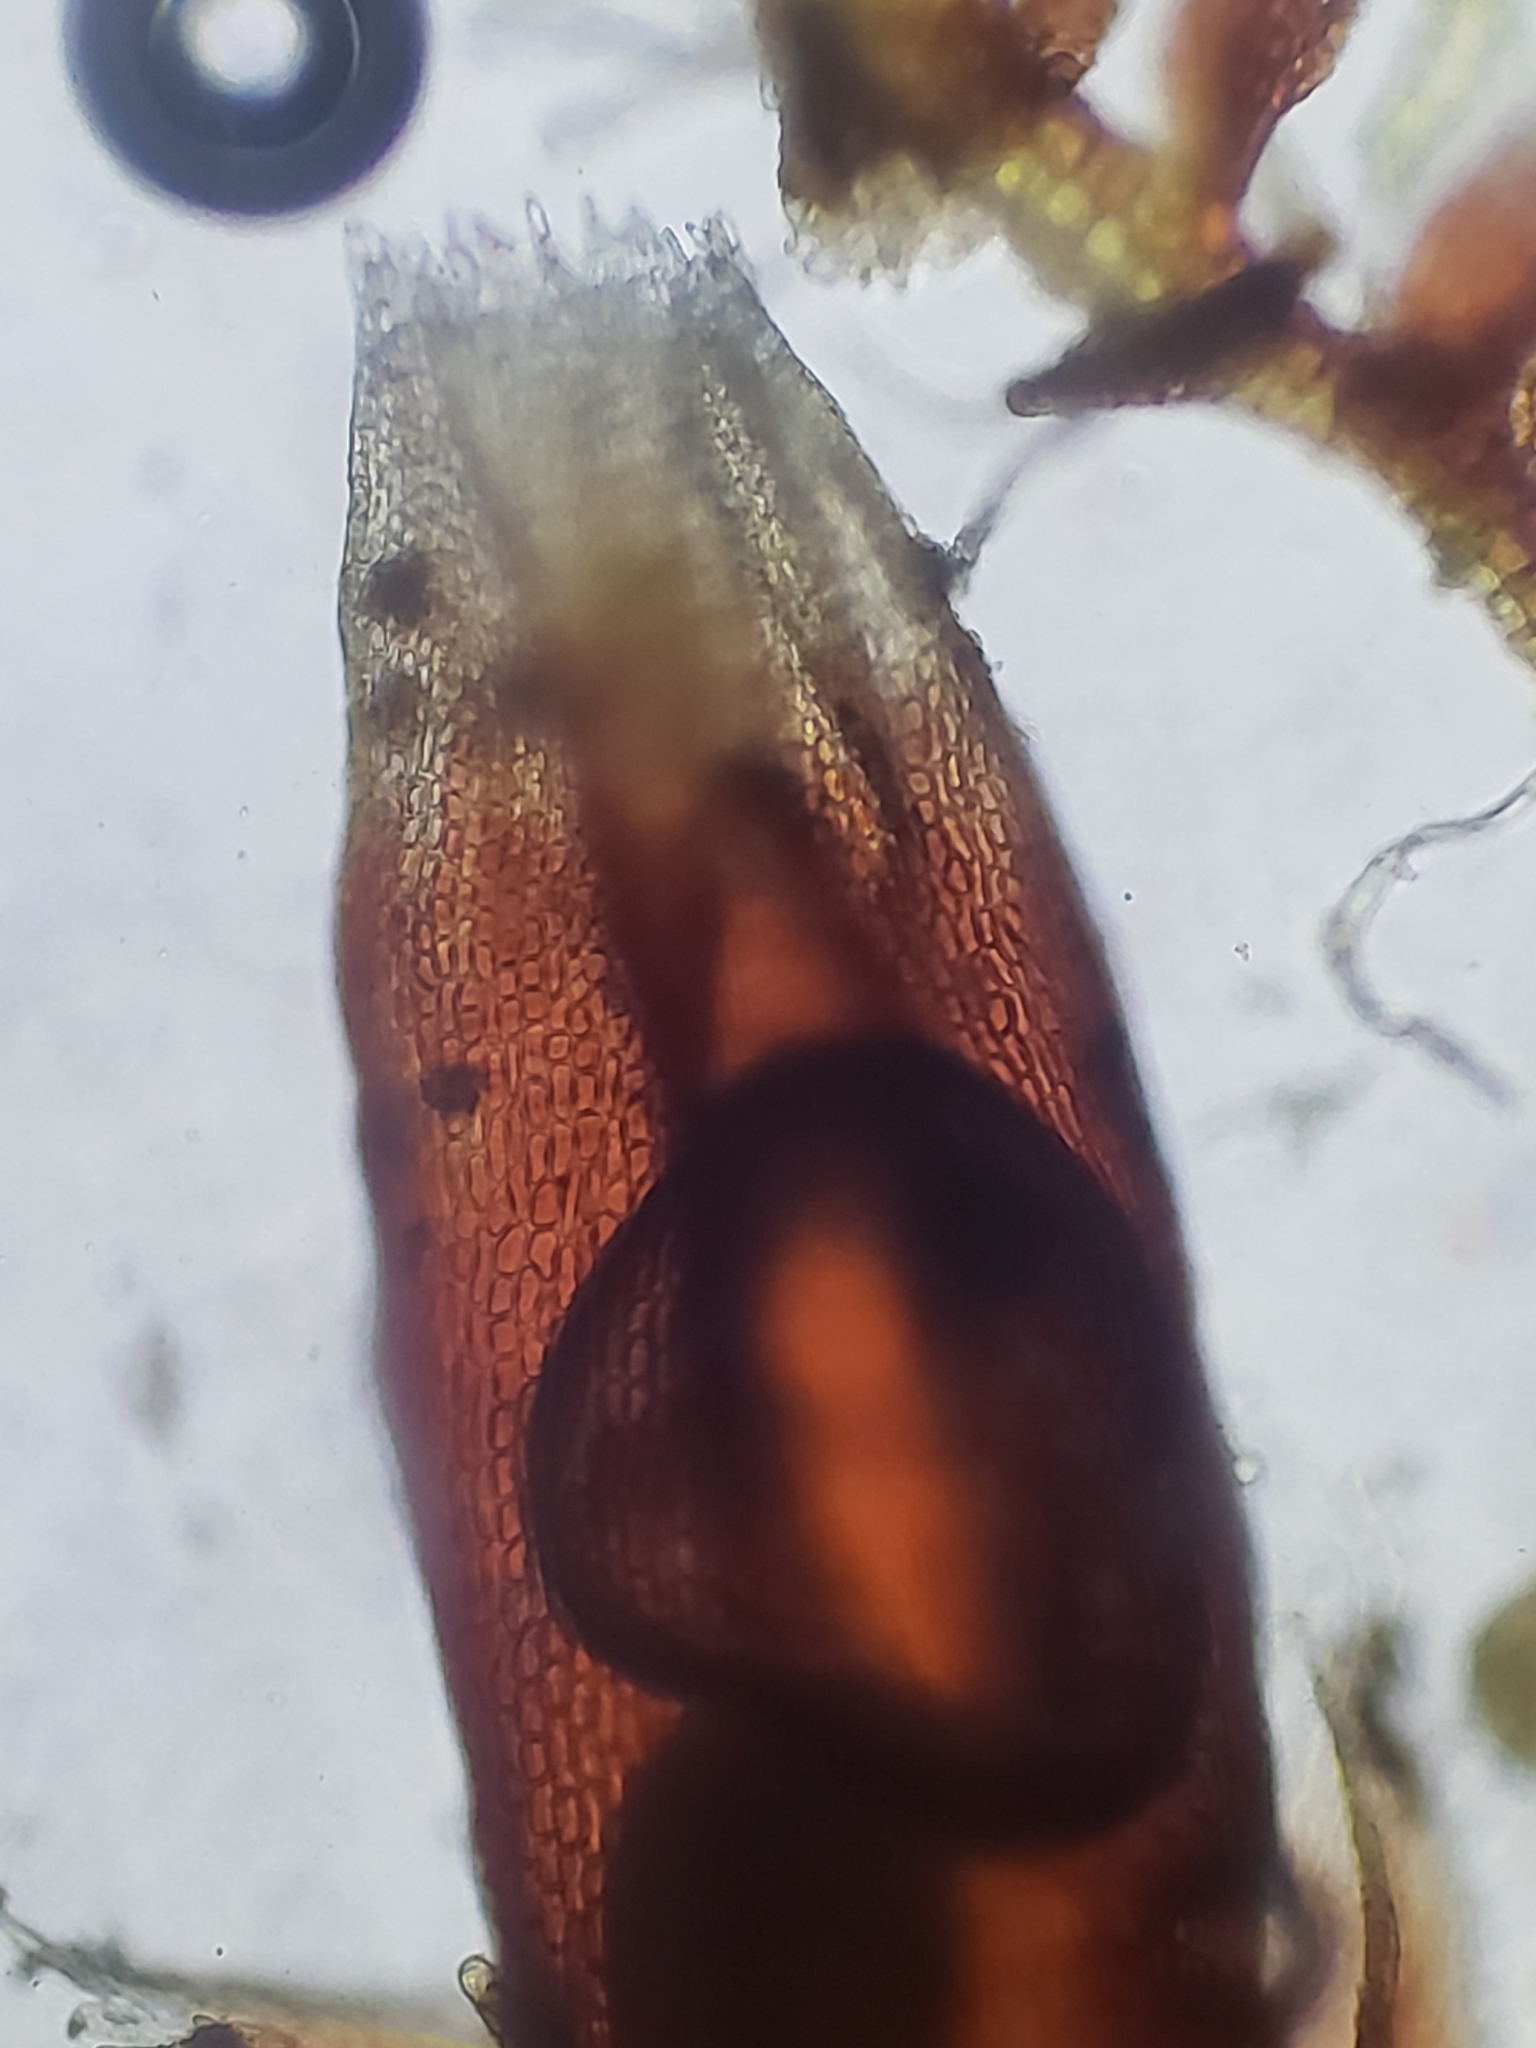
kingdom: Plantae
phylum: Marchantiophyta
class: Jungermanniopsida
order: Jungermanniales
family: Cephaloziaceae
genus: Nowellia
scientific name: Nowellia curvifolia
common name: Wood rustwort
